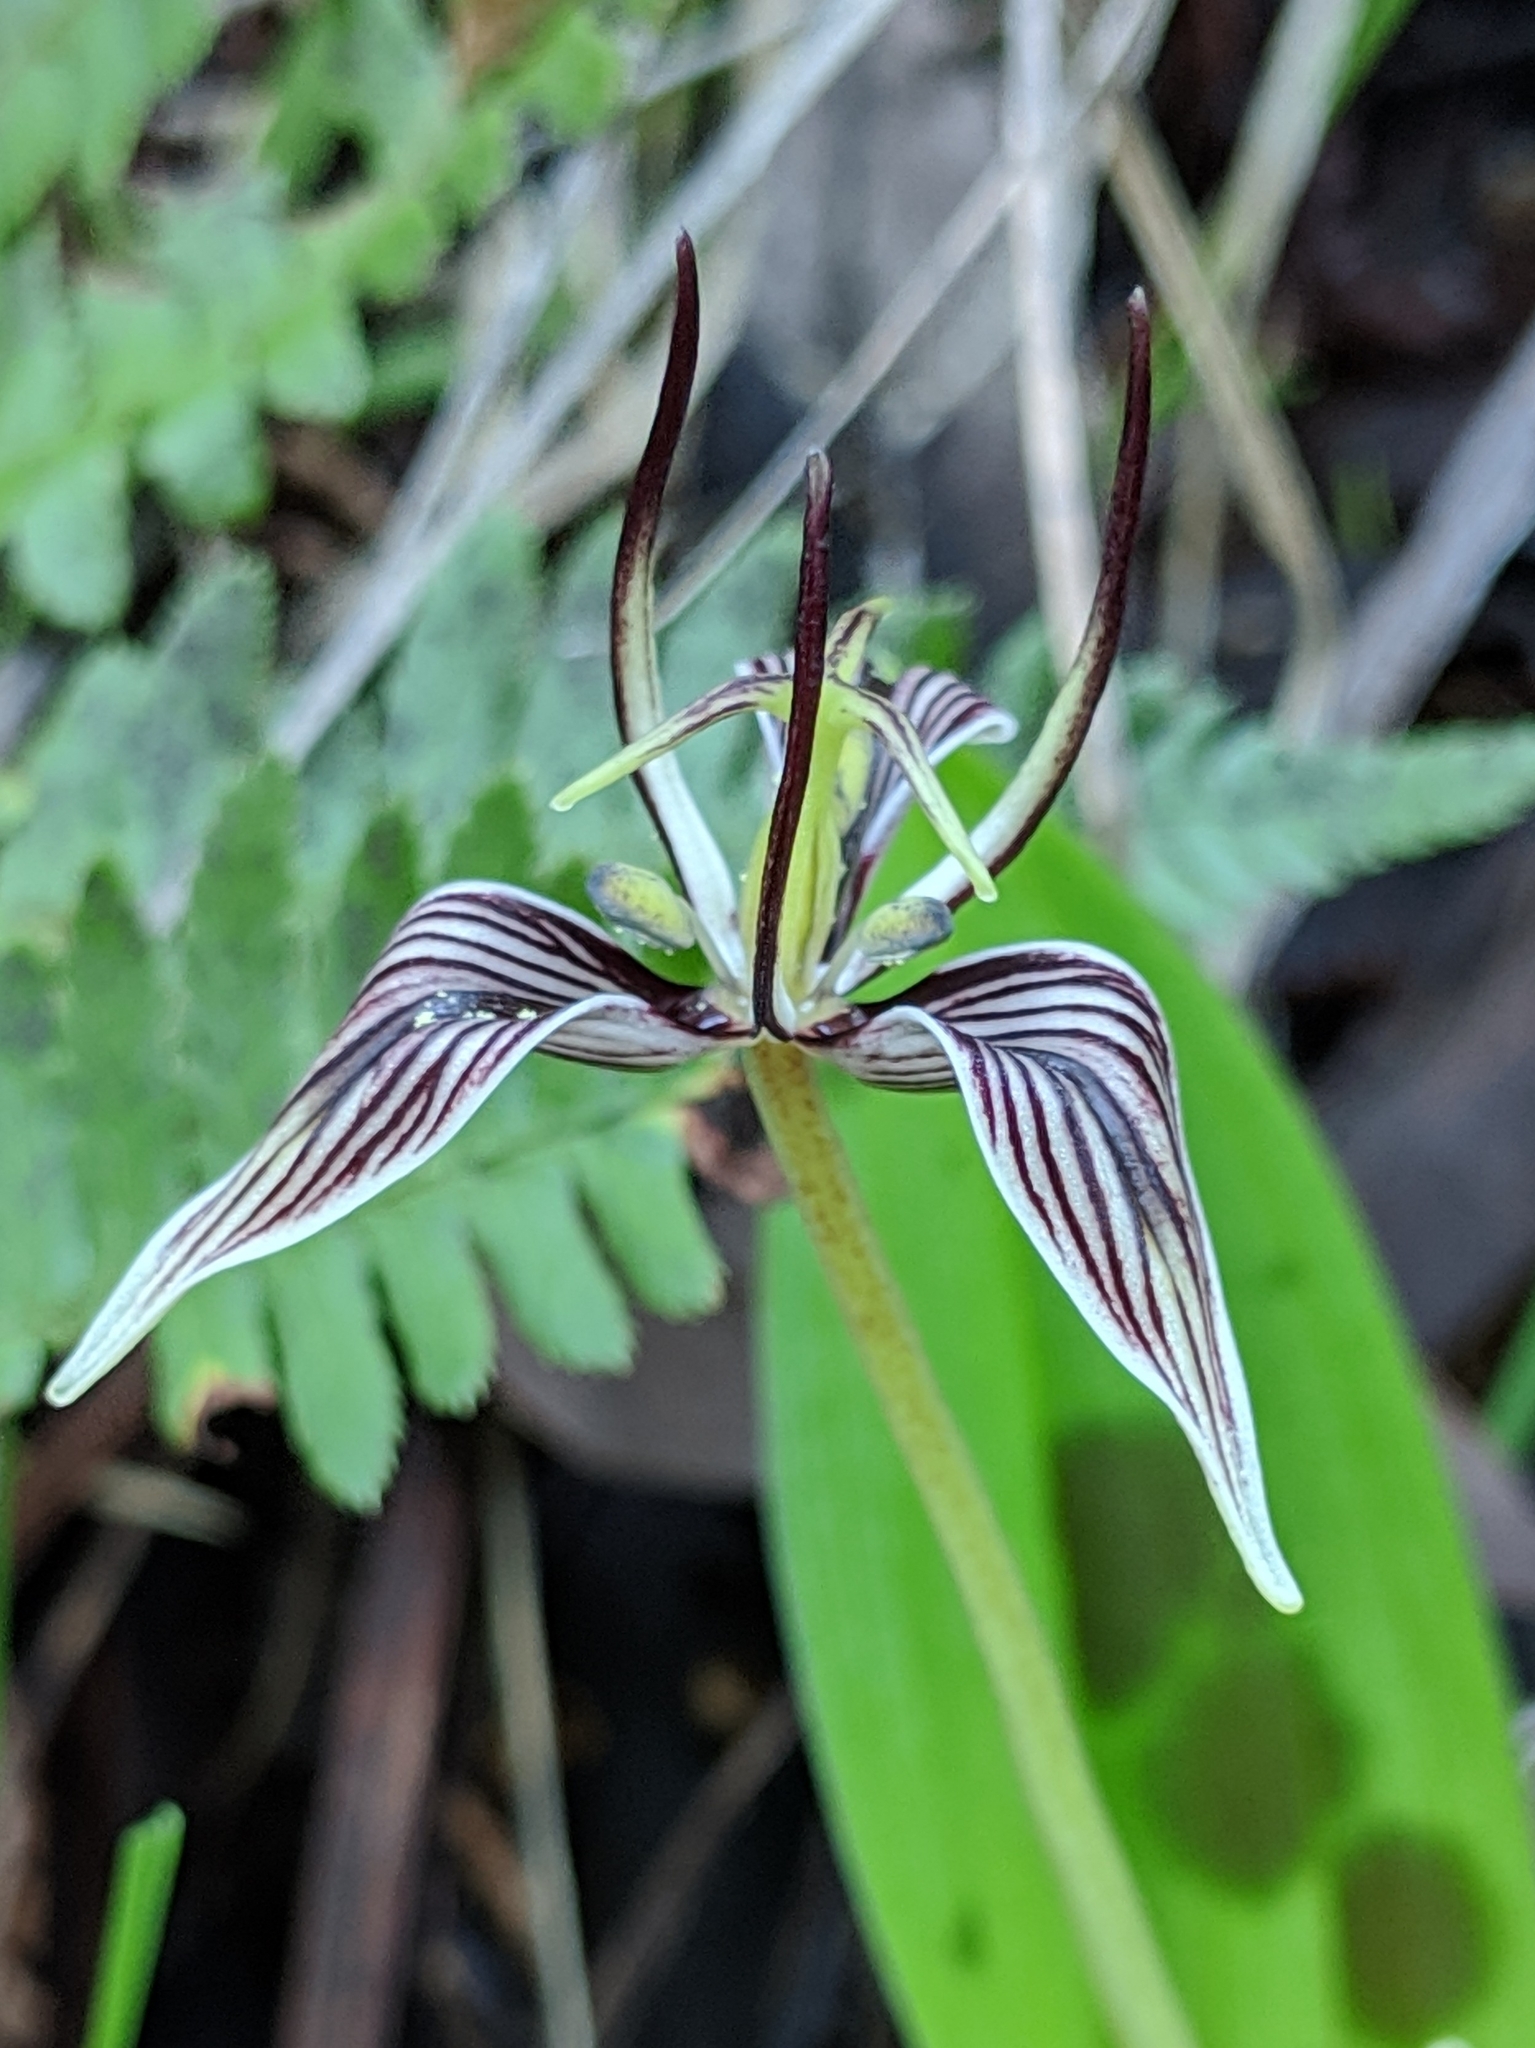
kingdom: Plantae
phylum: Tracheophyta
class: Liliopsida
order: Liliales
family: Liliaceae
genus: Scoliopus
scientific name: Scoliopus bigelovii
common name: Foetid adder's-tongue
